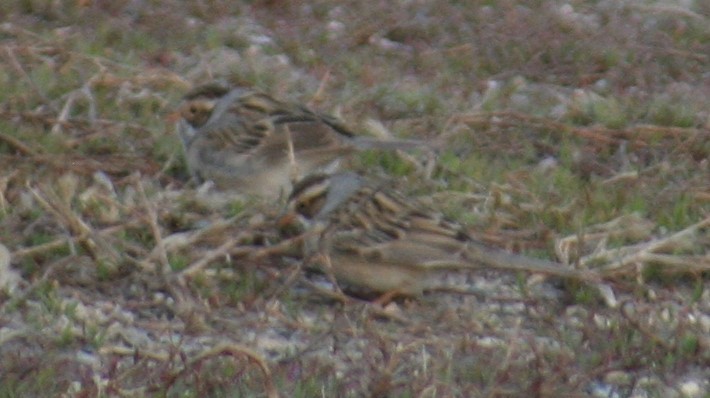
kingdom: Animalia
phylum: Chordata
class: Aves
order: Passeriformes
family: Passerellidae
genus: Spizella
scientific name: Spizella pallida
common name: Clay-colored sparrow
